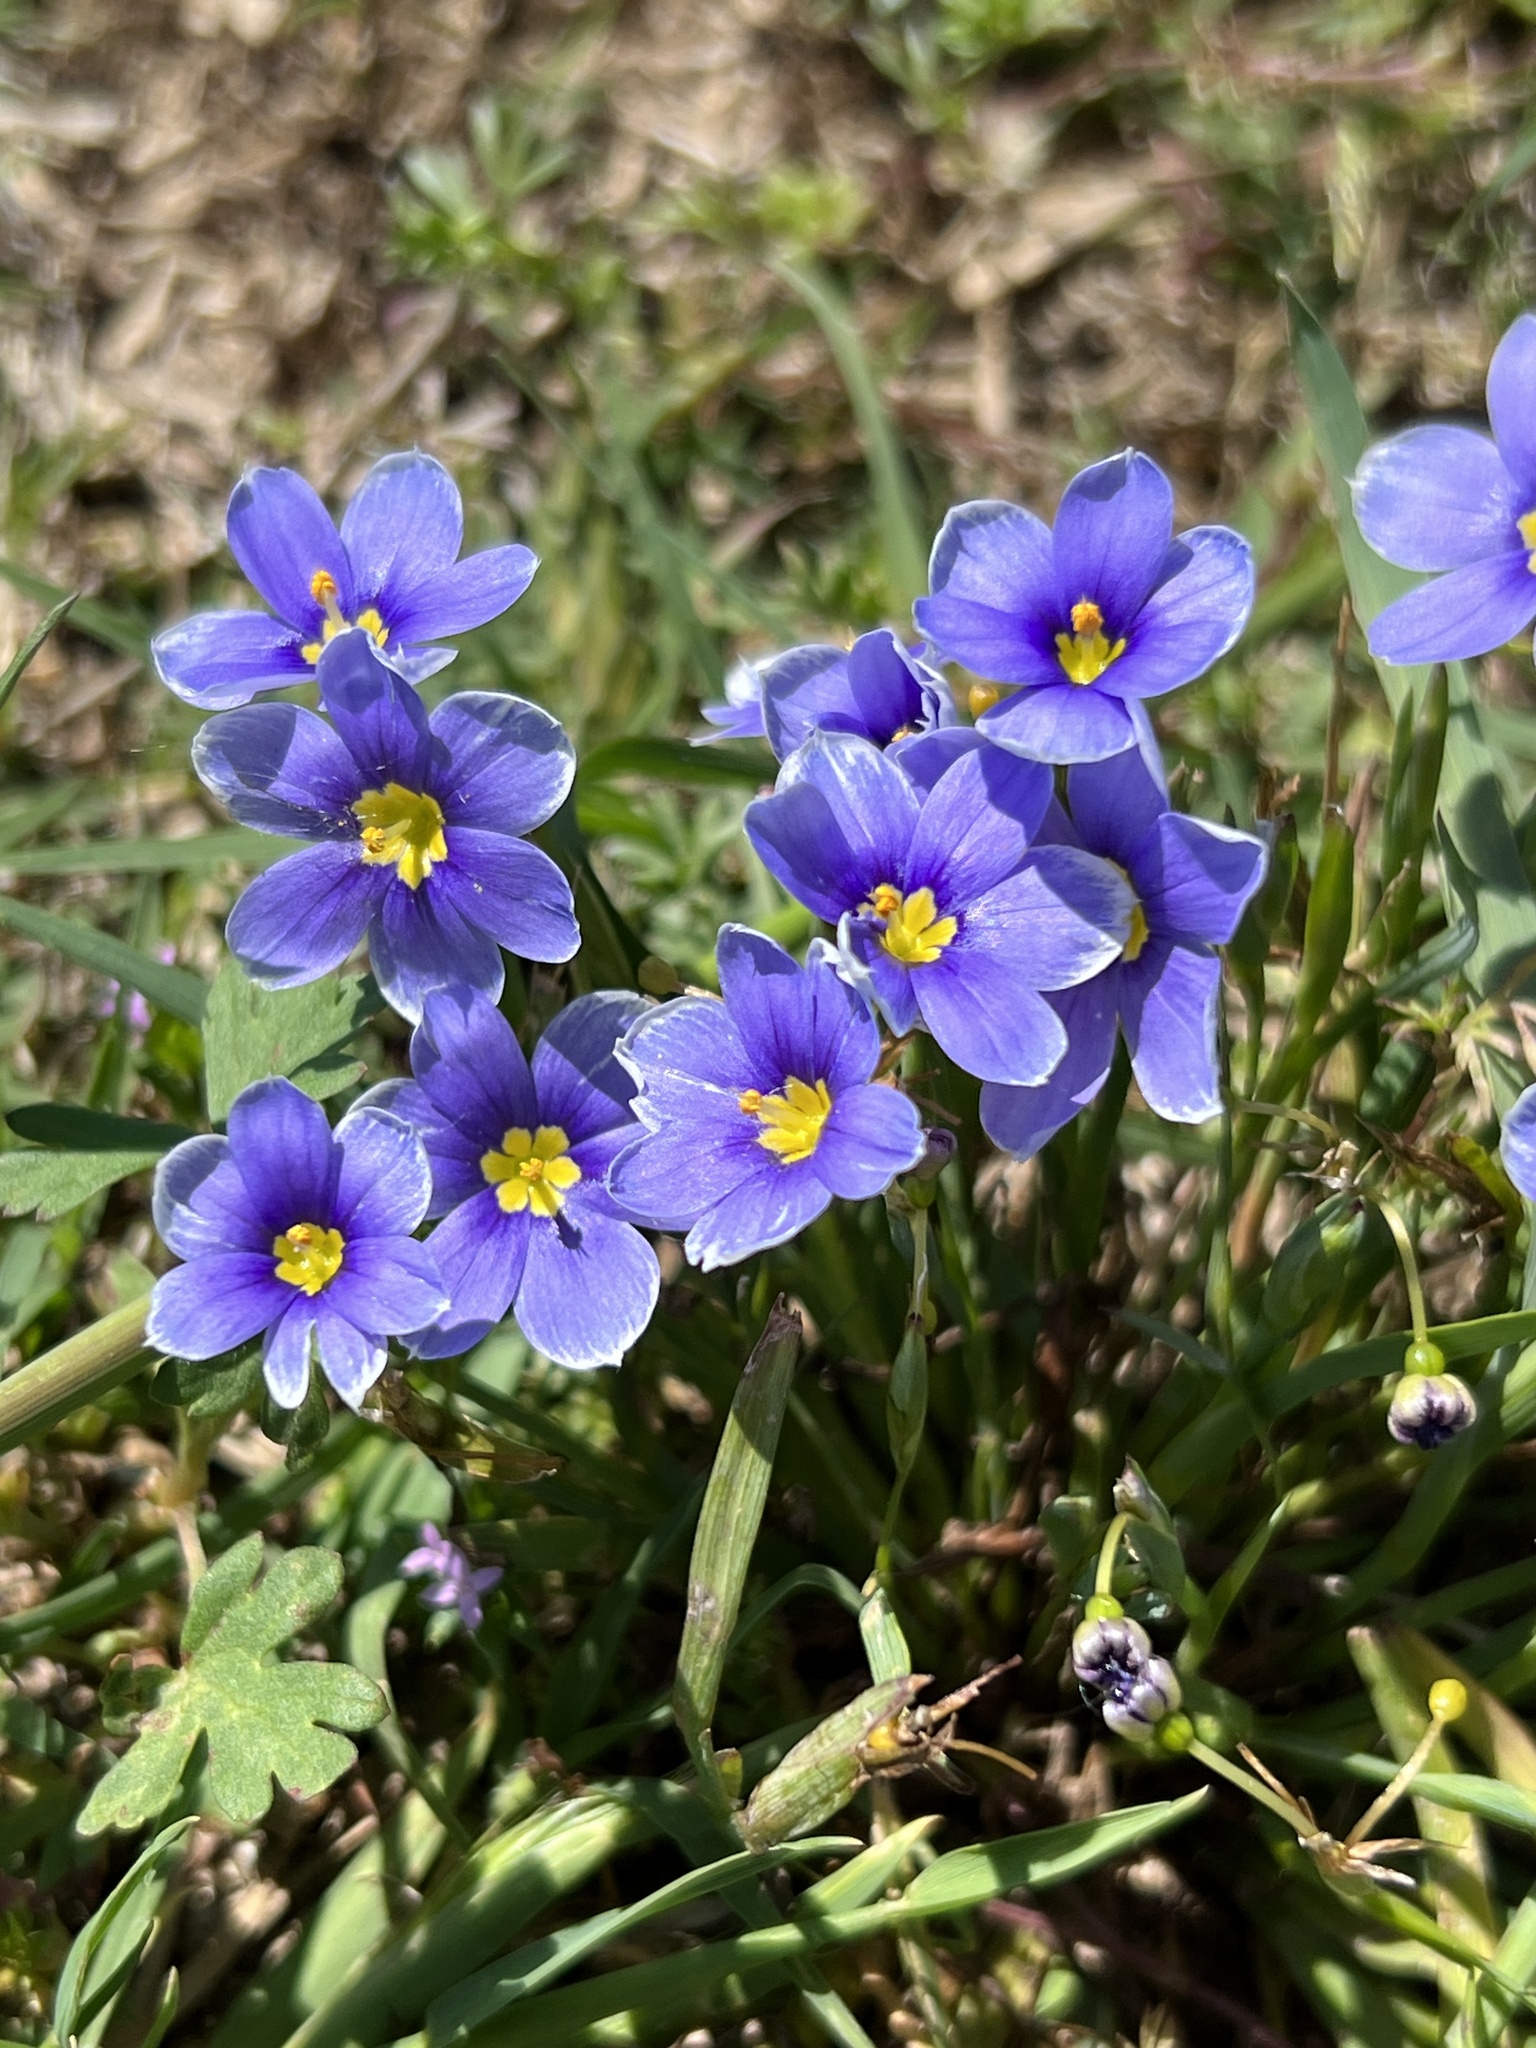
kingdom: Plantae
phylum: Tracheophyta
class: Liliopsida
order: Asparagales
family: Iridaceae
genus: Sisyrinchium
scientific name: Sisyrinchium pruinosum
